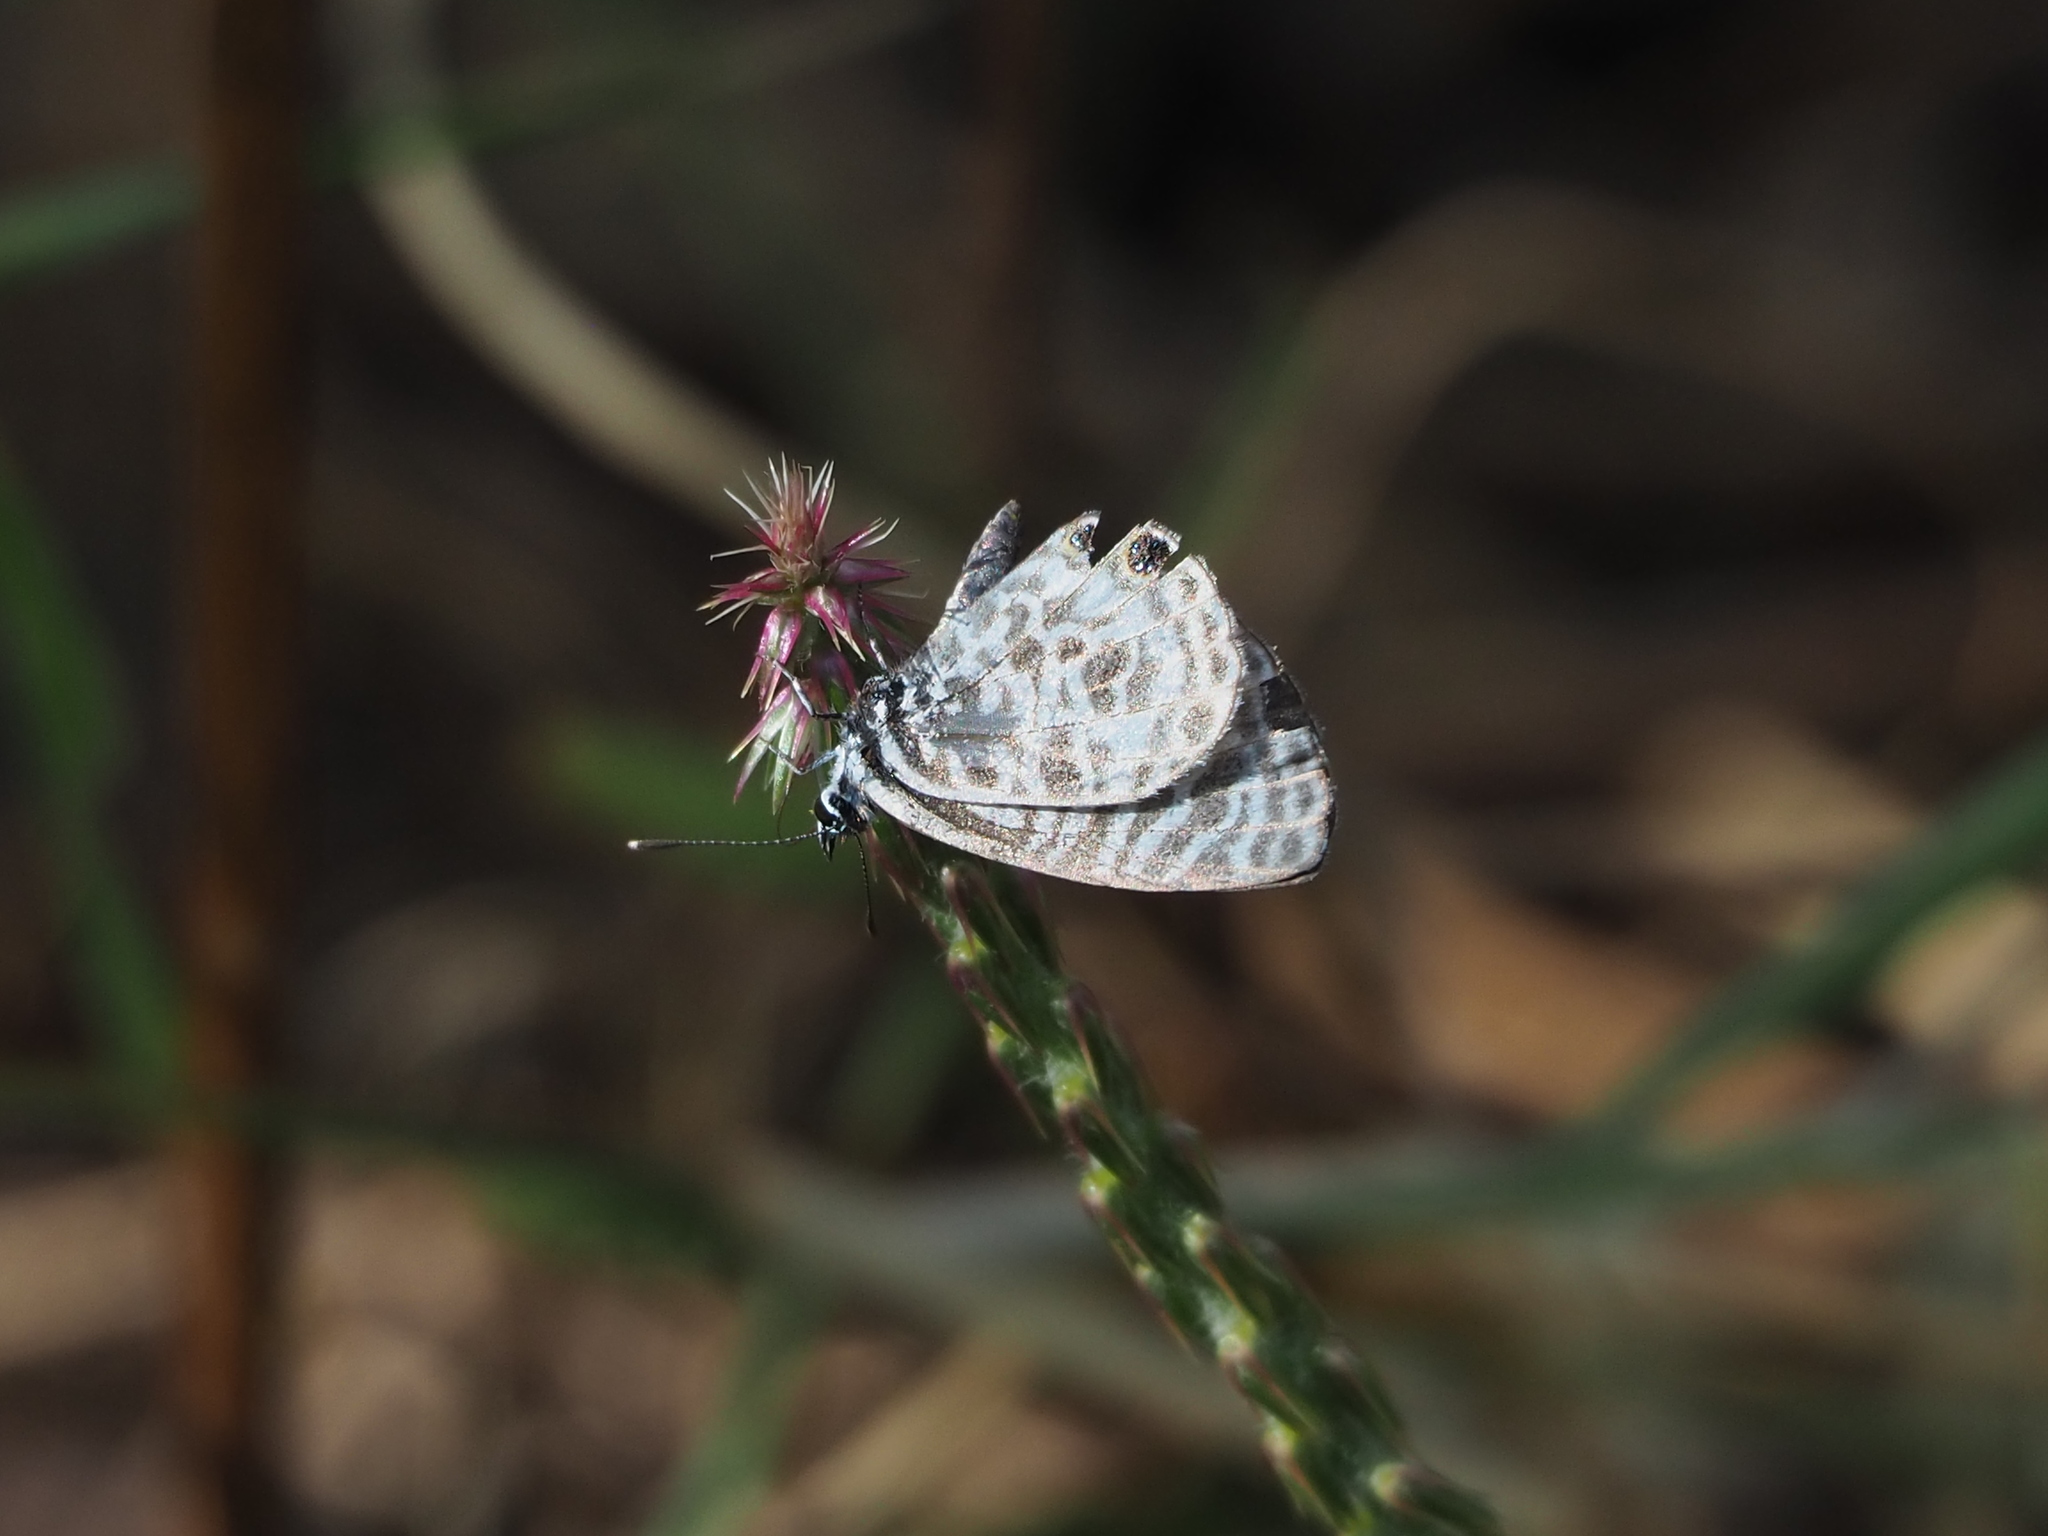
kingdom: Animalia
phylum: Arthropoda
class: Insecta
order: Lepidoptera
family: Lycaenidae
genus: Leptotes
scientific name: Leptotes plinius
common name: Zebra blue
